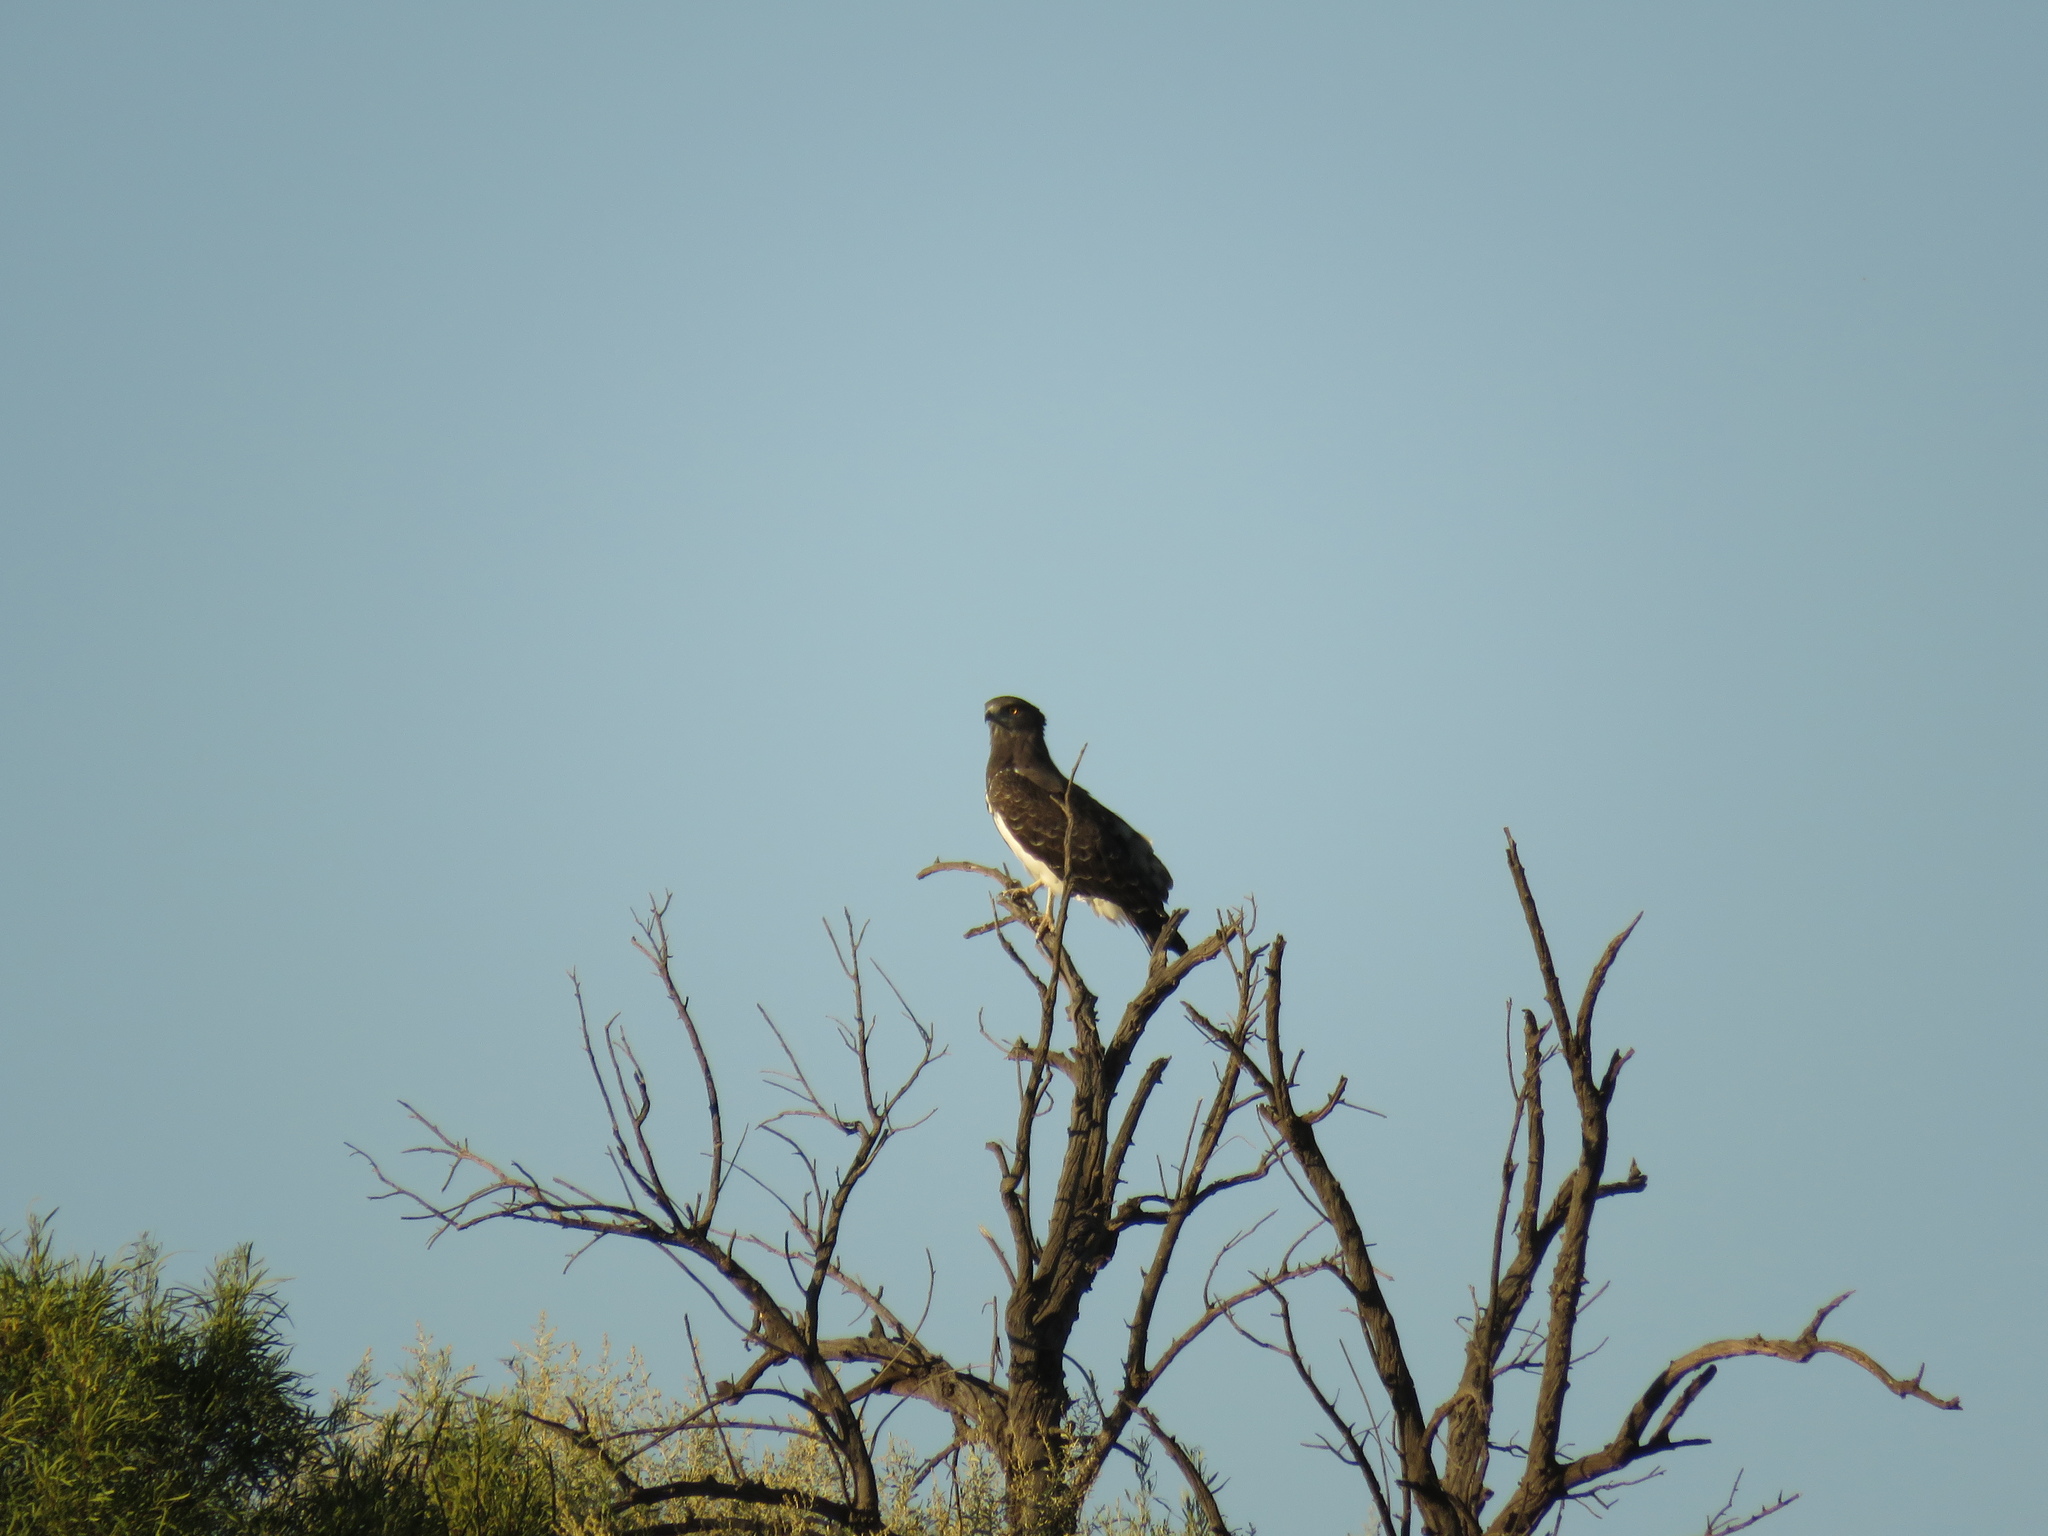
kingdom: Animalia
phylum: Chordata
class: Aves
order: Accipitriformes
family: Accipitridae
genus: Circaetus
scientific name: Circaetus pectoralis
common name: Black-chested snake eagle
